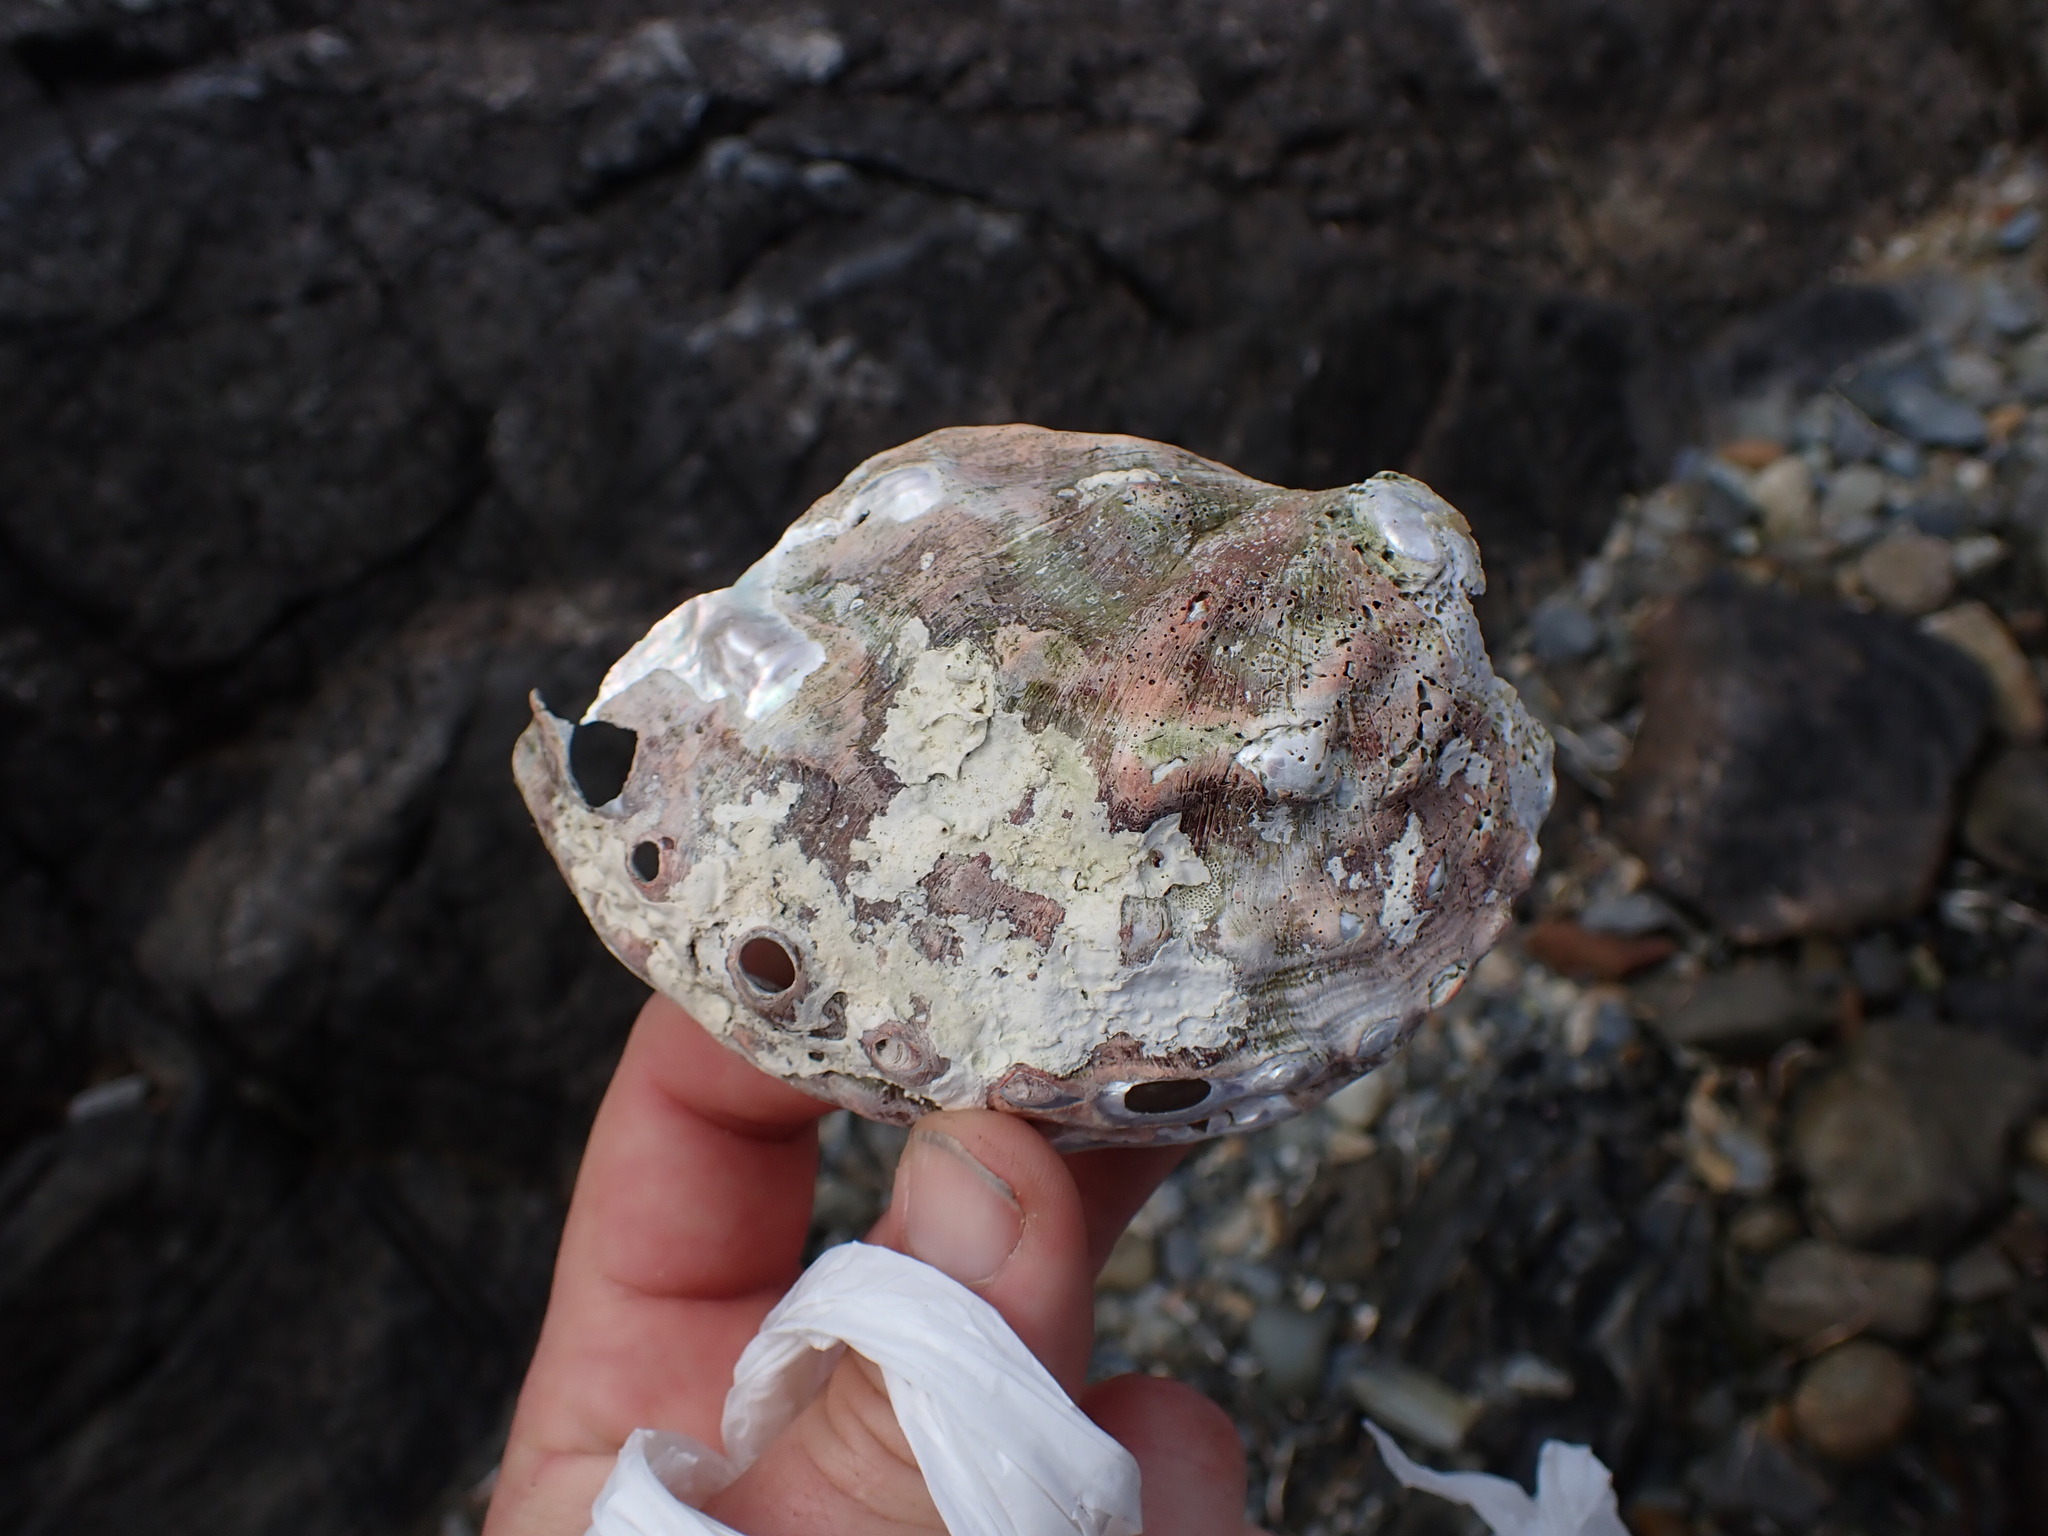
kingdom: Animalia
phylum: Mollusca
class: Gastropoda
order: Lepetellida
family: Haliotidae
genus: Haliotis
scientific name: Haliotis kamtschatkana
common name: Pinto abalone
